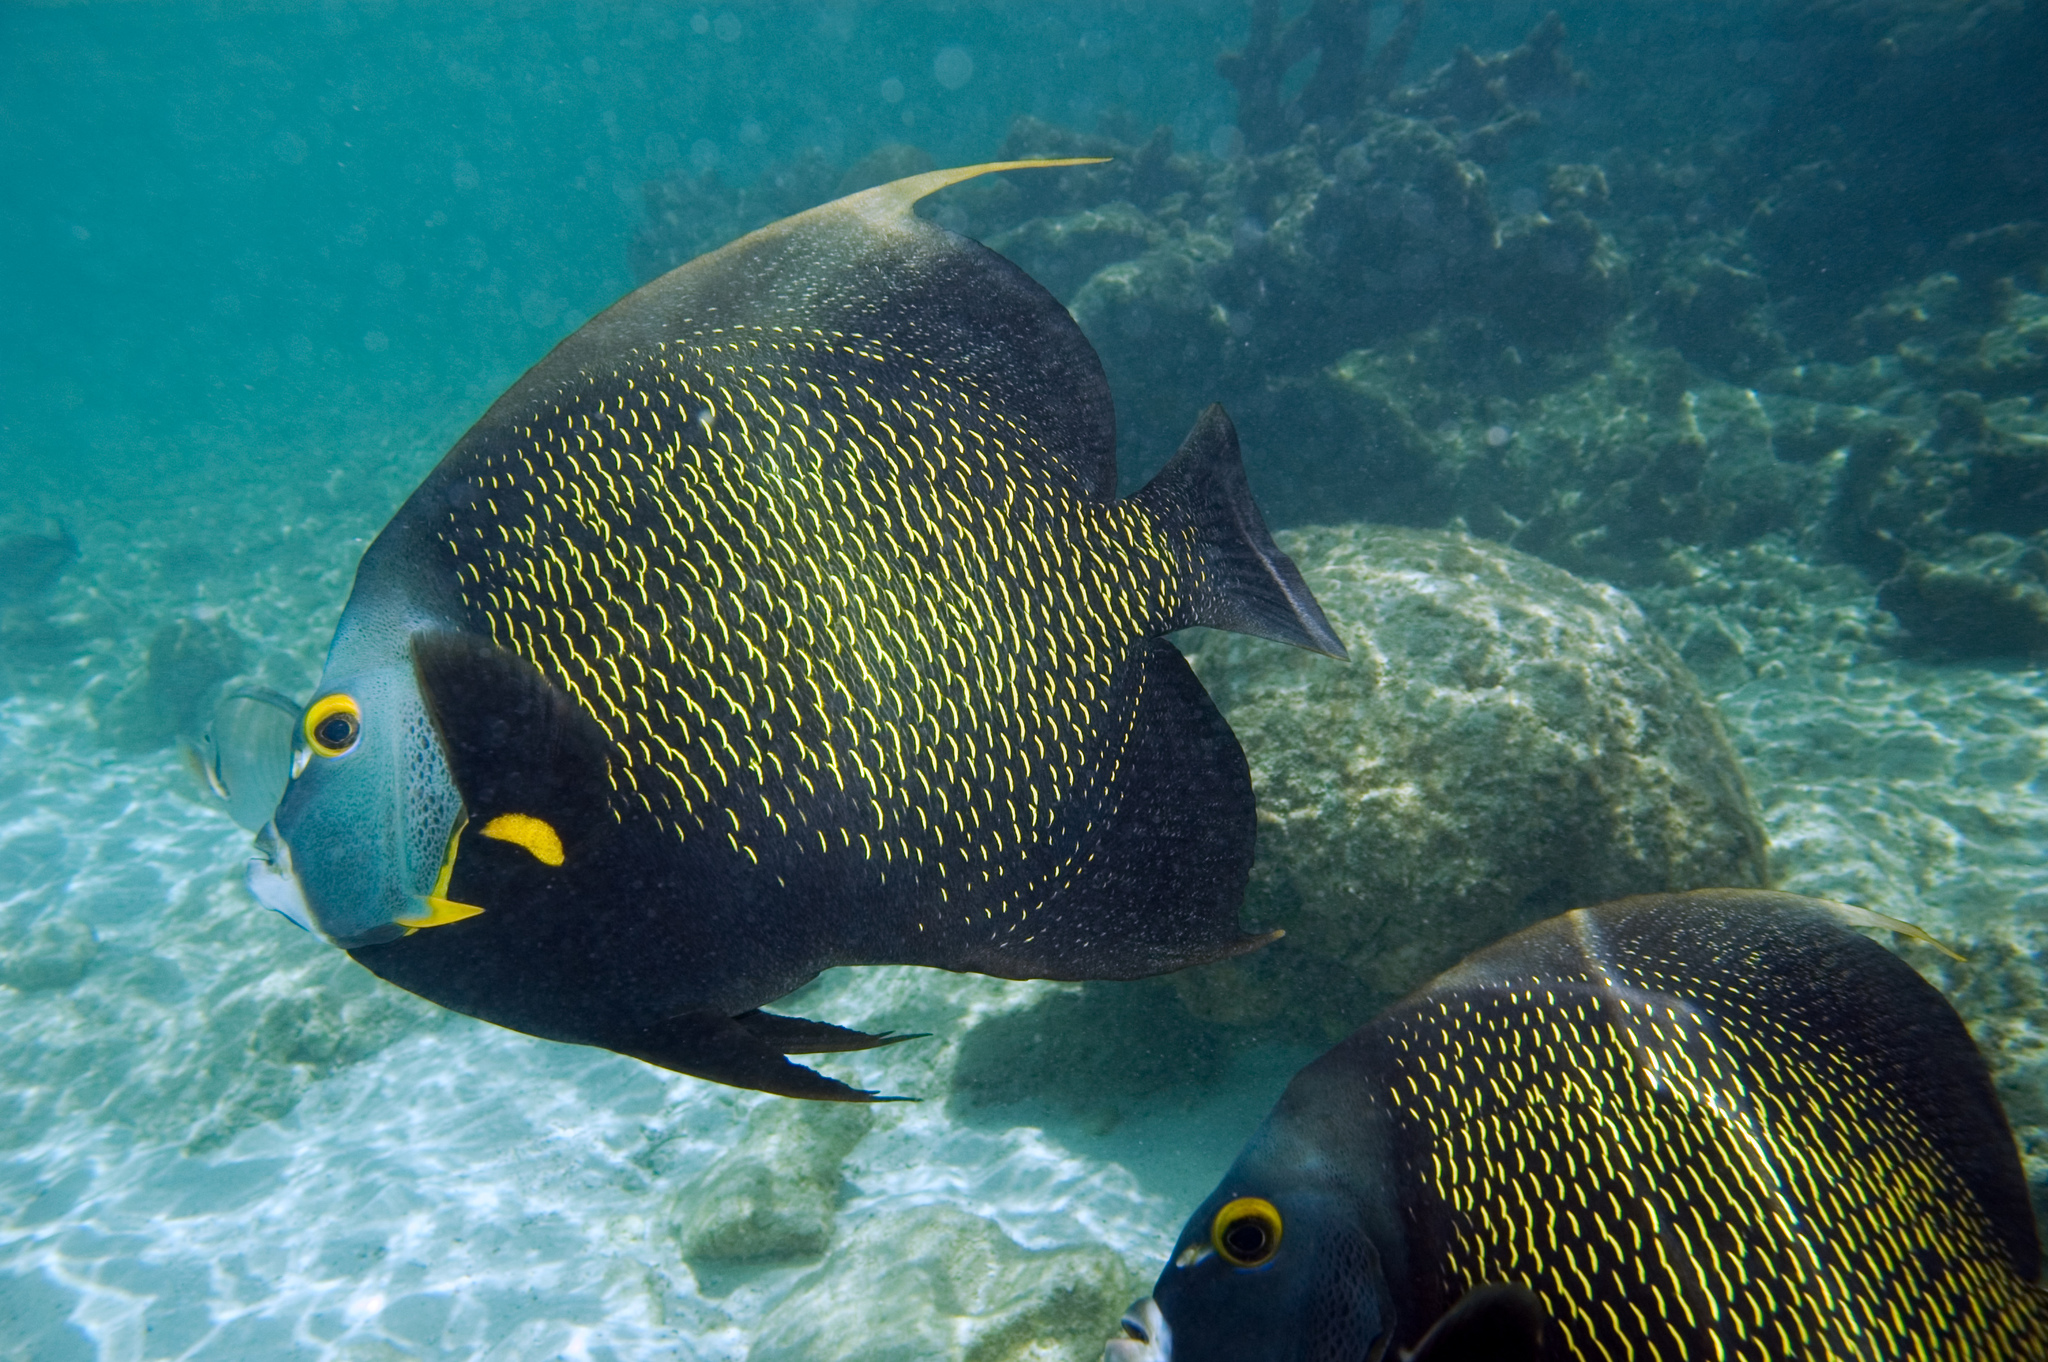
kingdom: Animalia
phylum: Chordata
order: Perciformes
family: Pomacanthidae
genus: Pomacanthus
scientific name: Pomacanthus paru
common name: French angelfish
